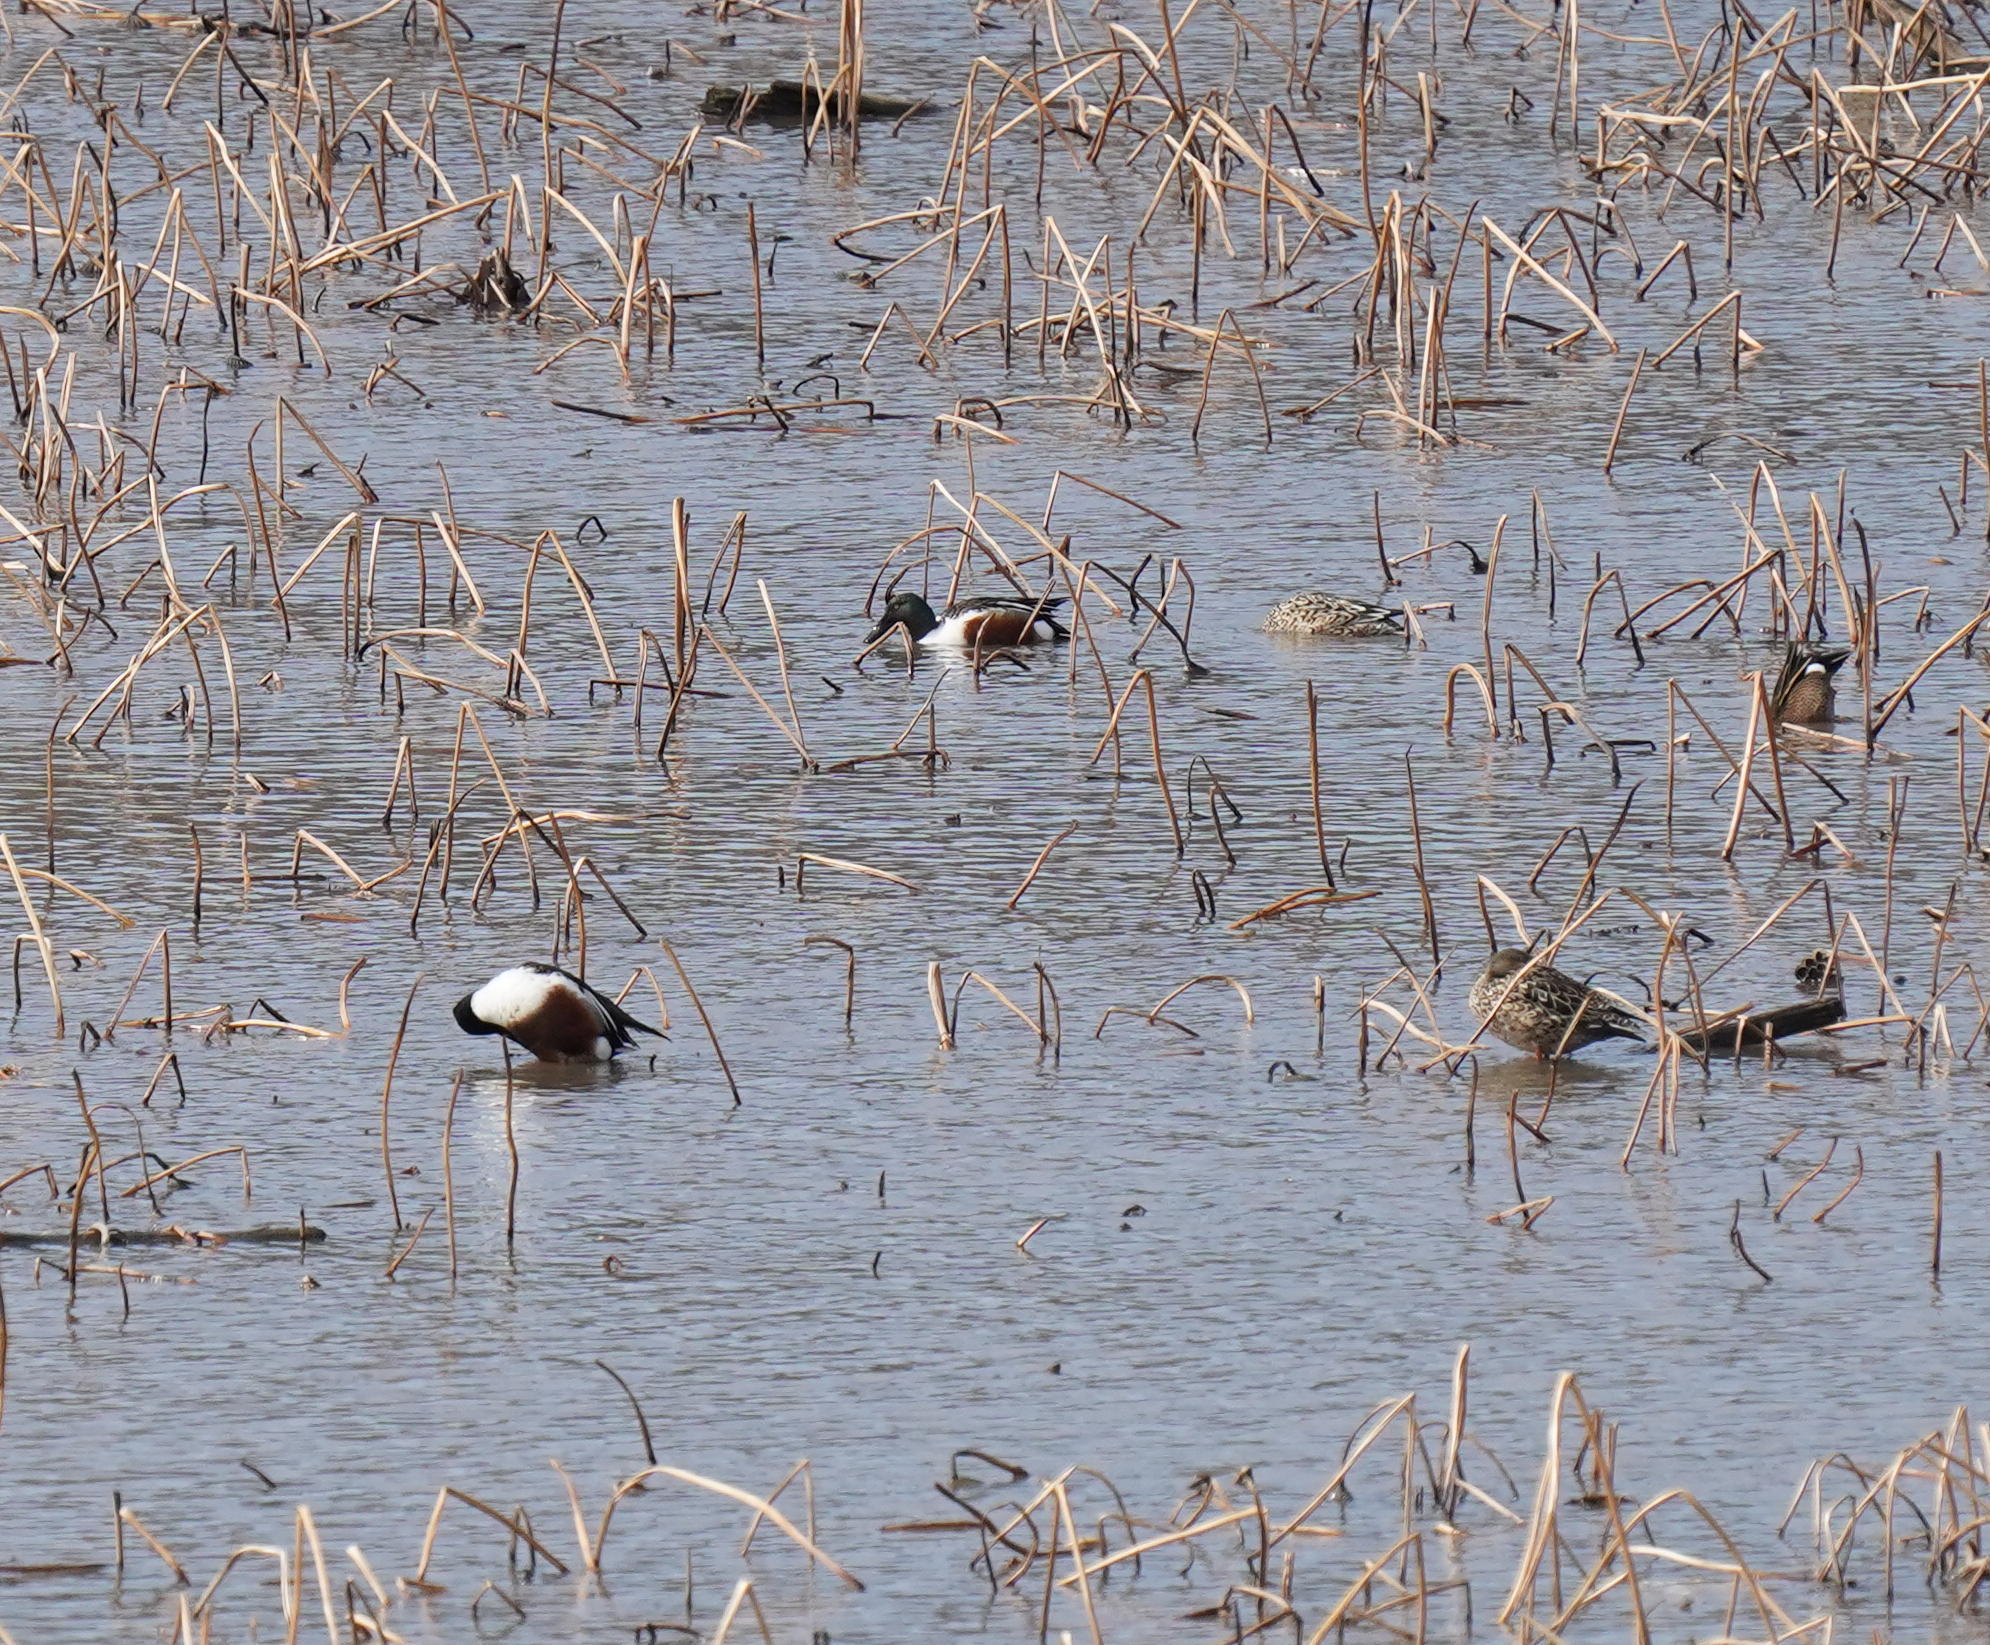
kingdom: Animalia
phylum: Chordata
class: Aves
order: Anseriformes
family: Anatidae
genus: Spatula
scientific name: Spatula clypeata
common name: Northern shoveler
